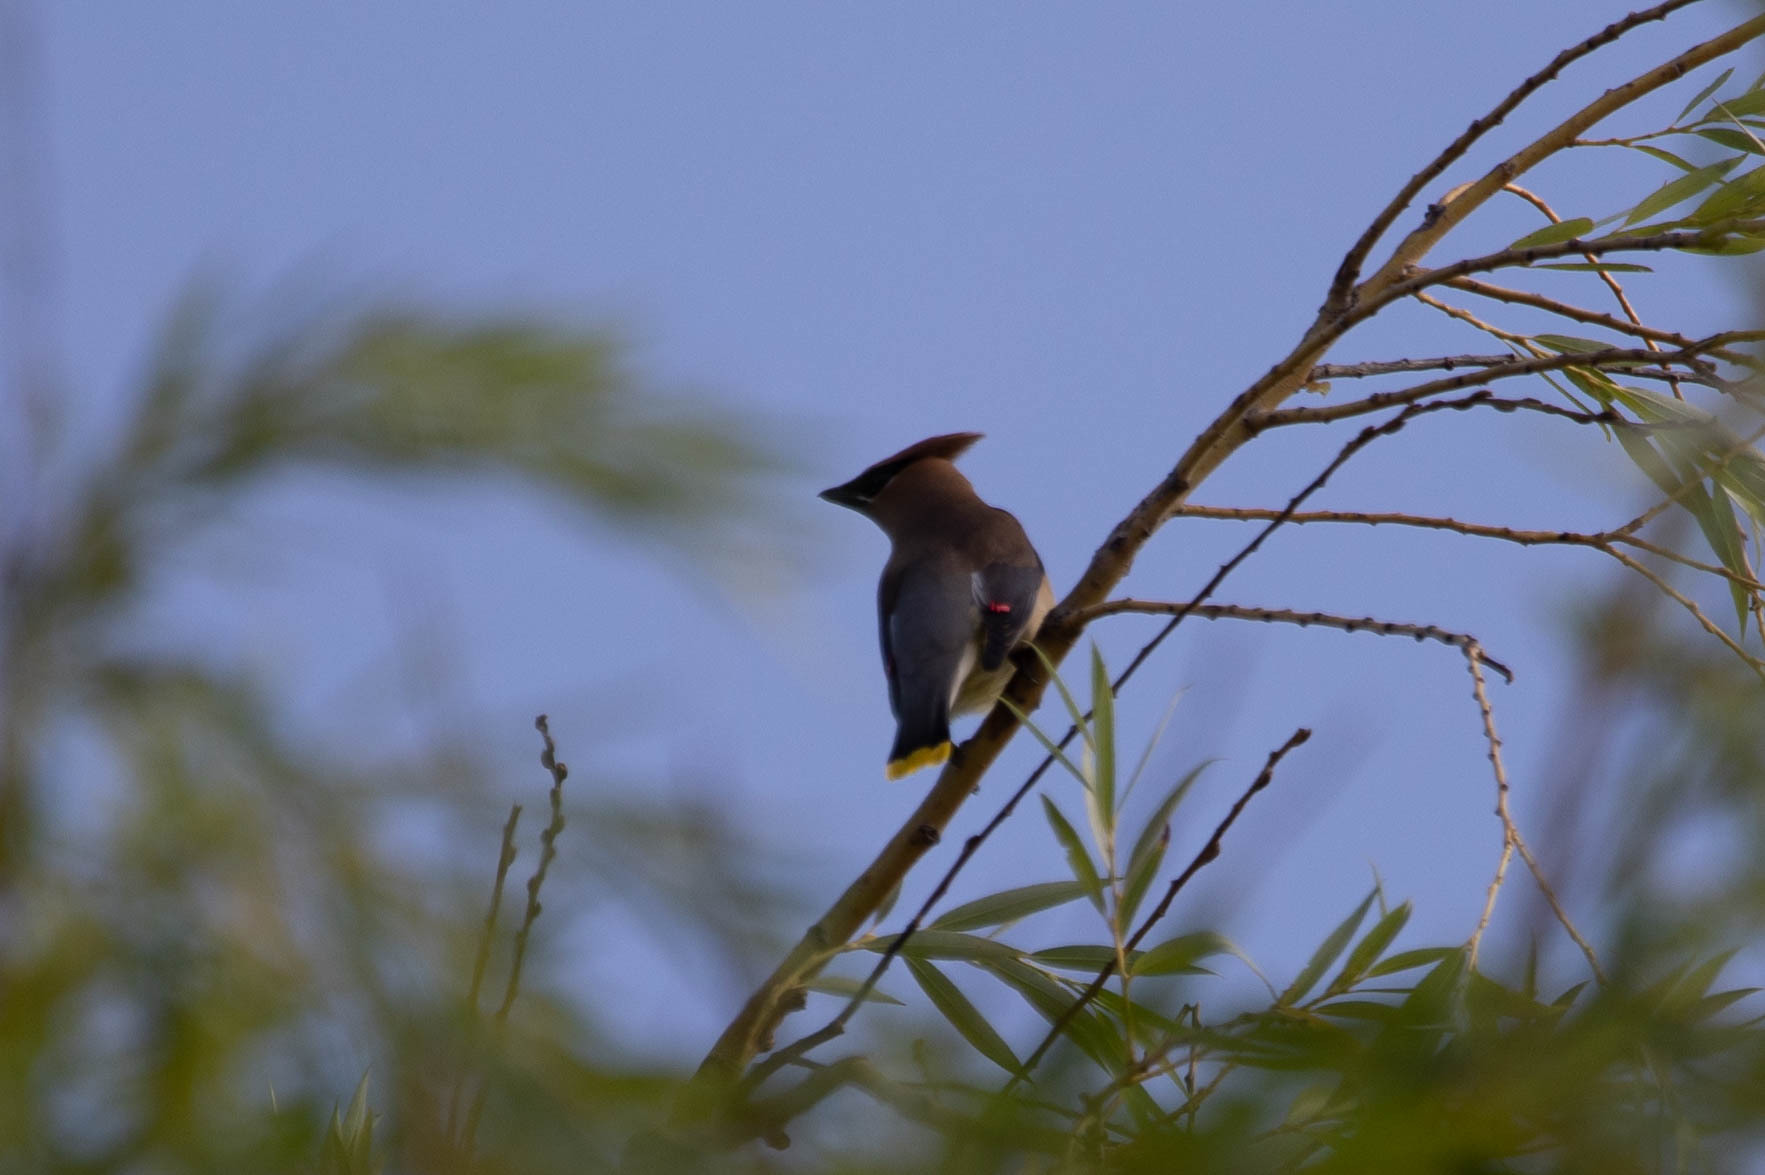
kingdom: Animalia
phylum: Chordata
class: Aves
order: Passeriformes
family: Bombycillidae
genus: Bombycilla
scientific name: Bombycilla cedrorum
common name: Cedar waxwing
